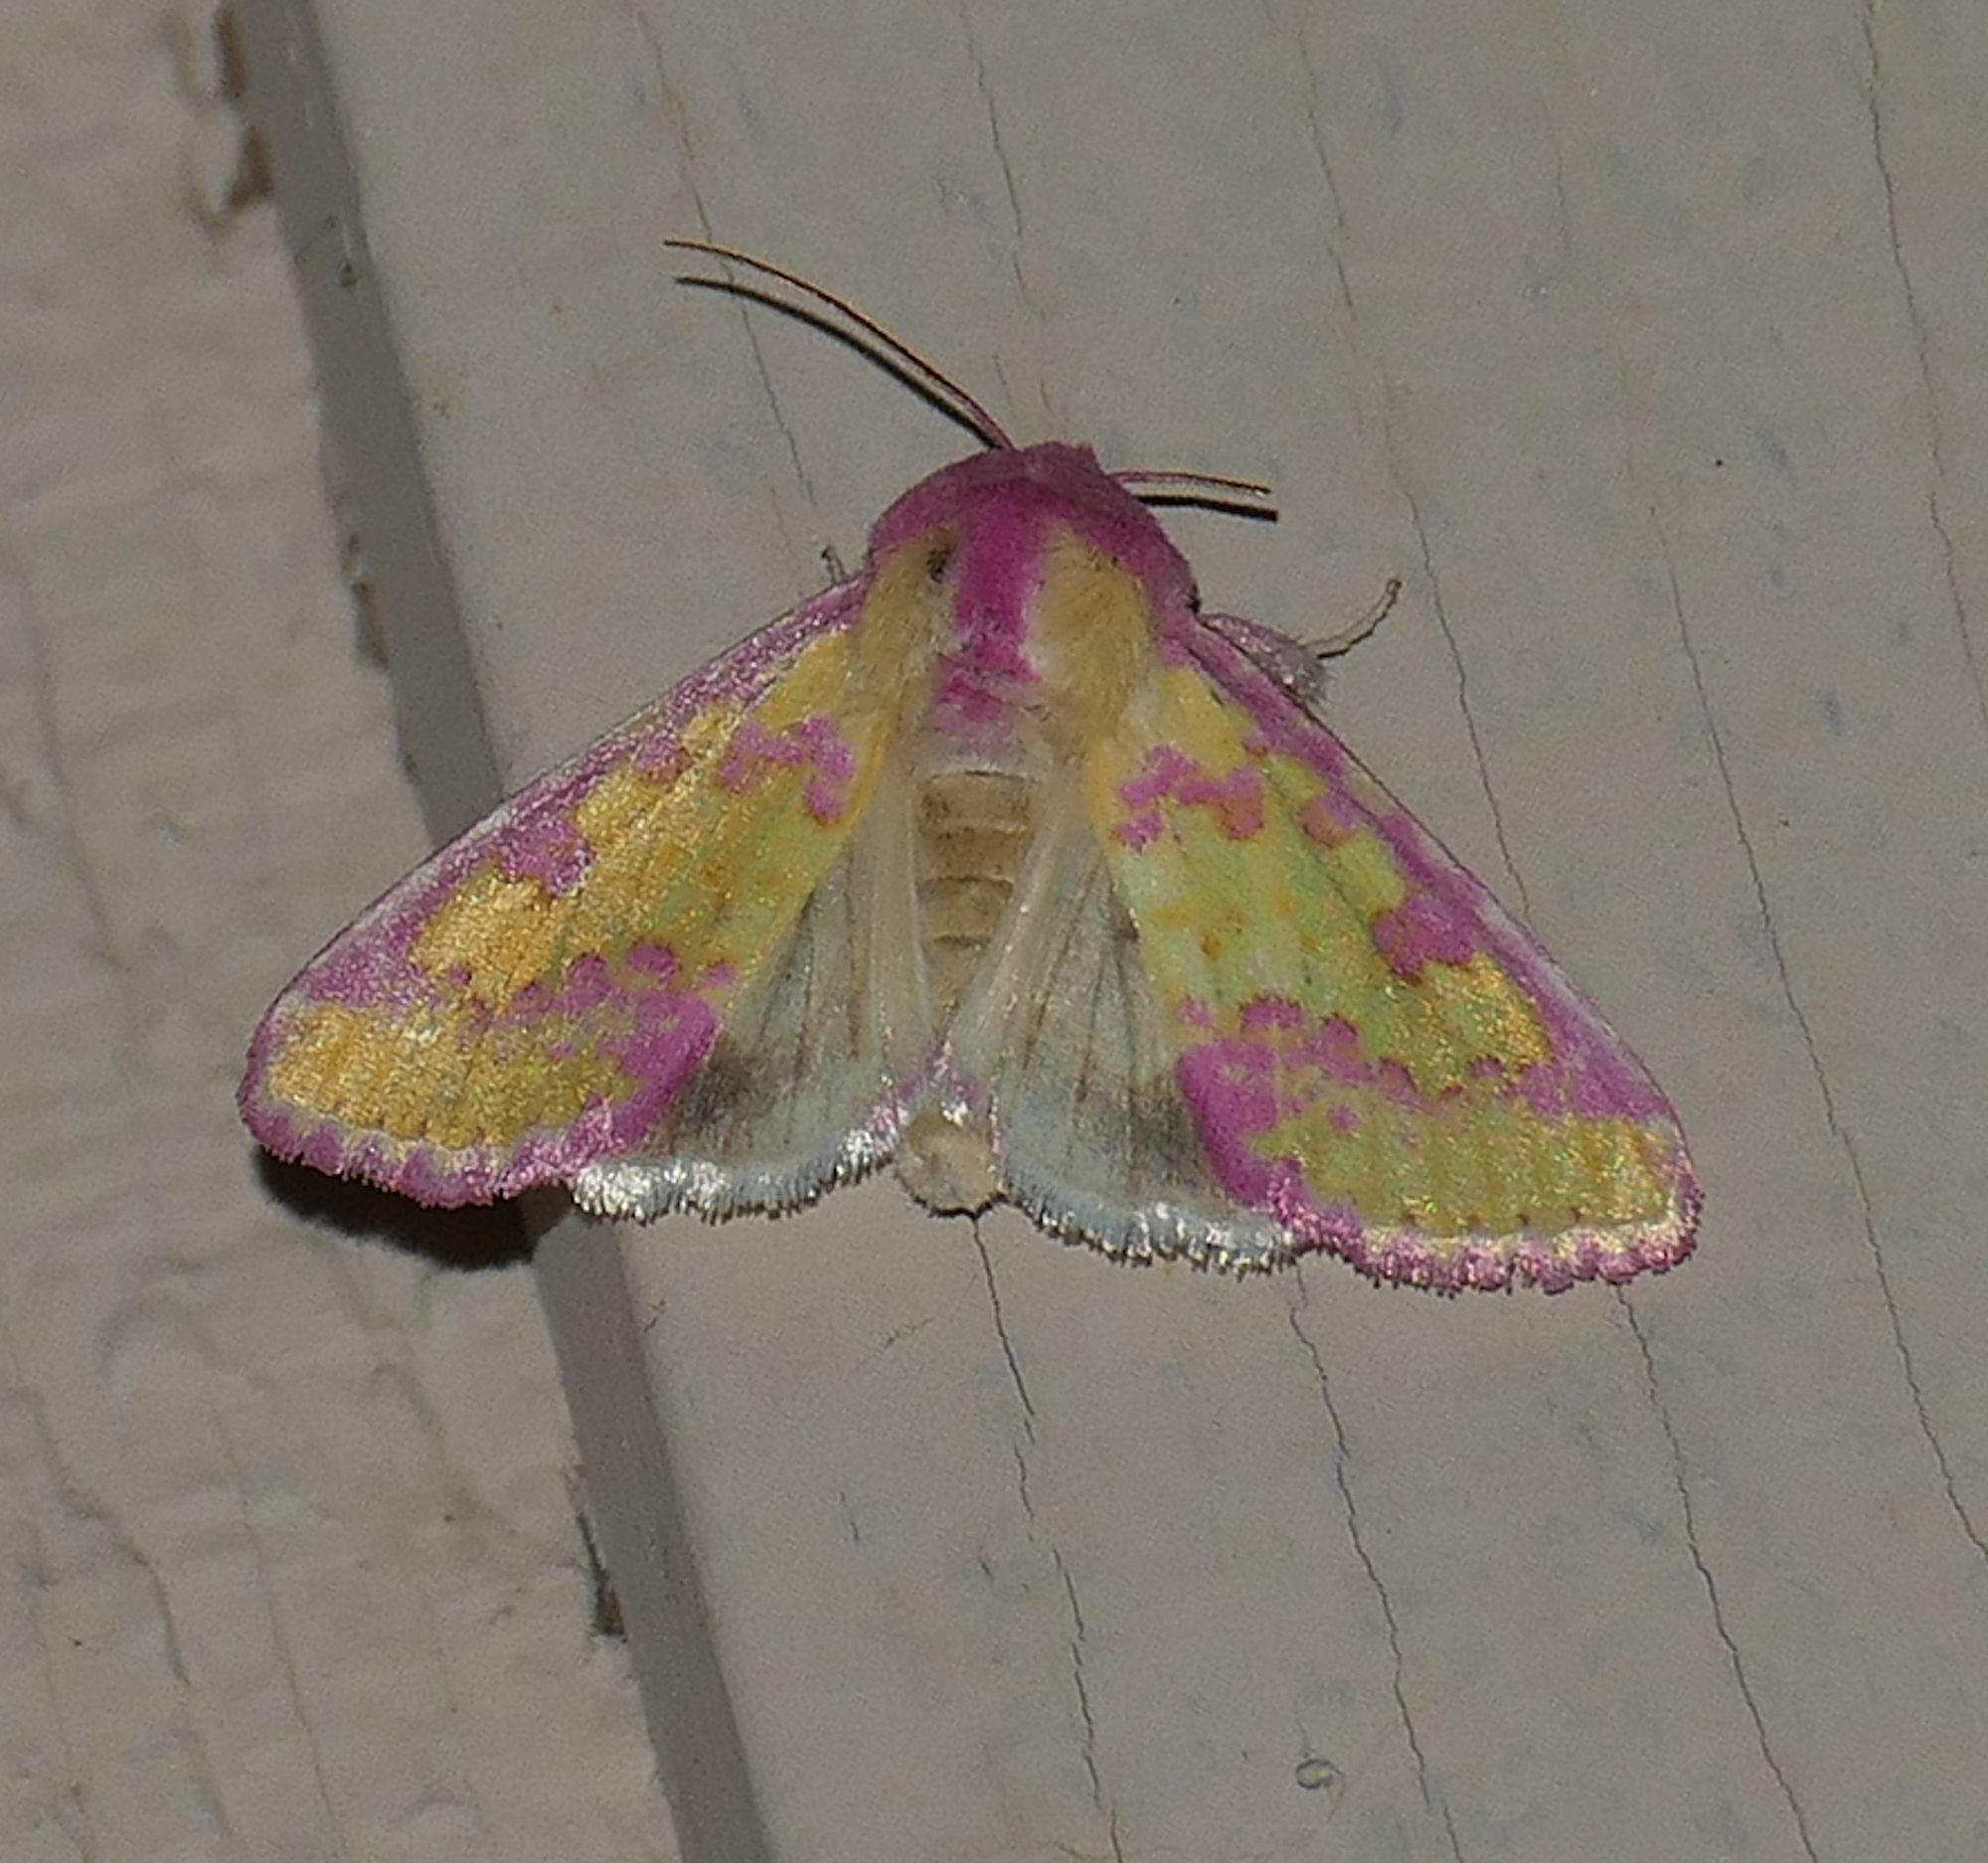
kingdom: Animalia
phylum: Arthropoda
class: Insecta
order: Lepidoptera
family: Noctuidae
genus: Psectrotarsia
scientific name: Psectrotarsia suavis
